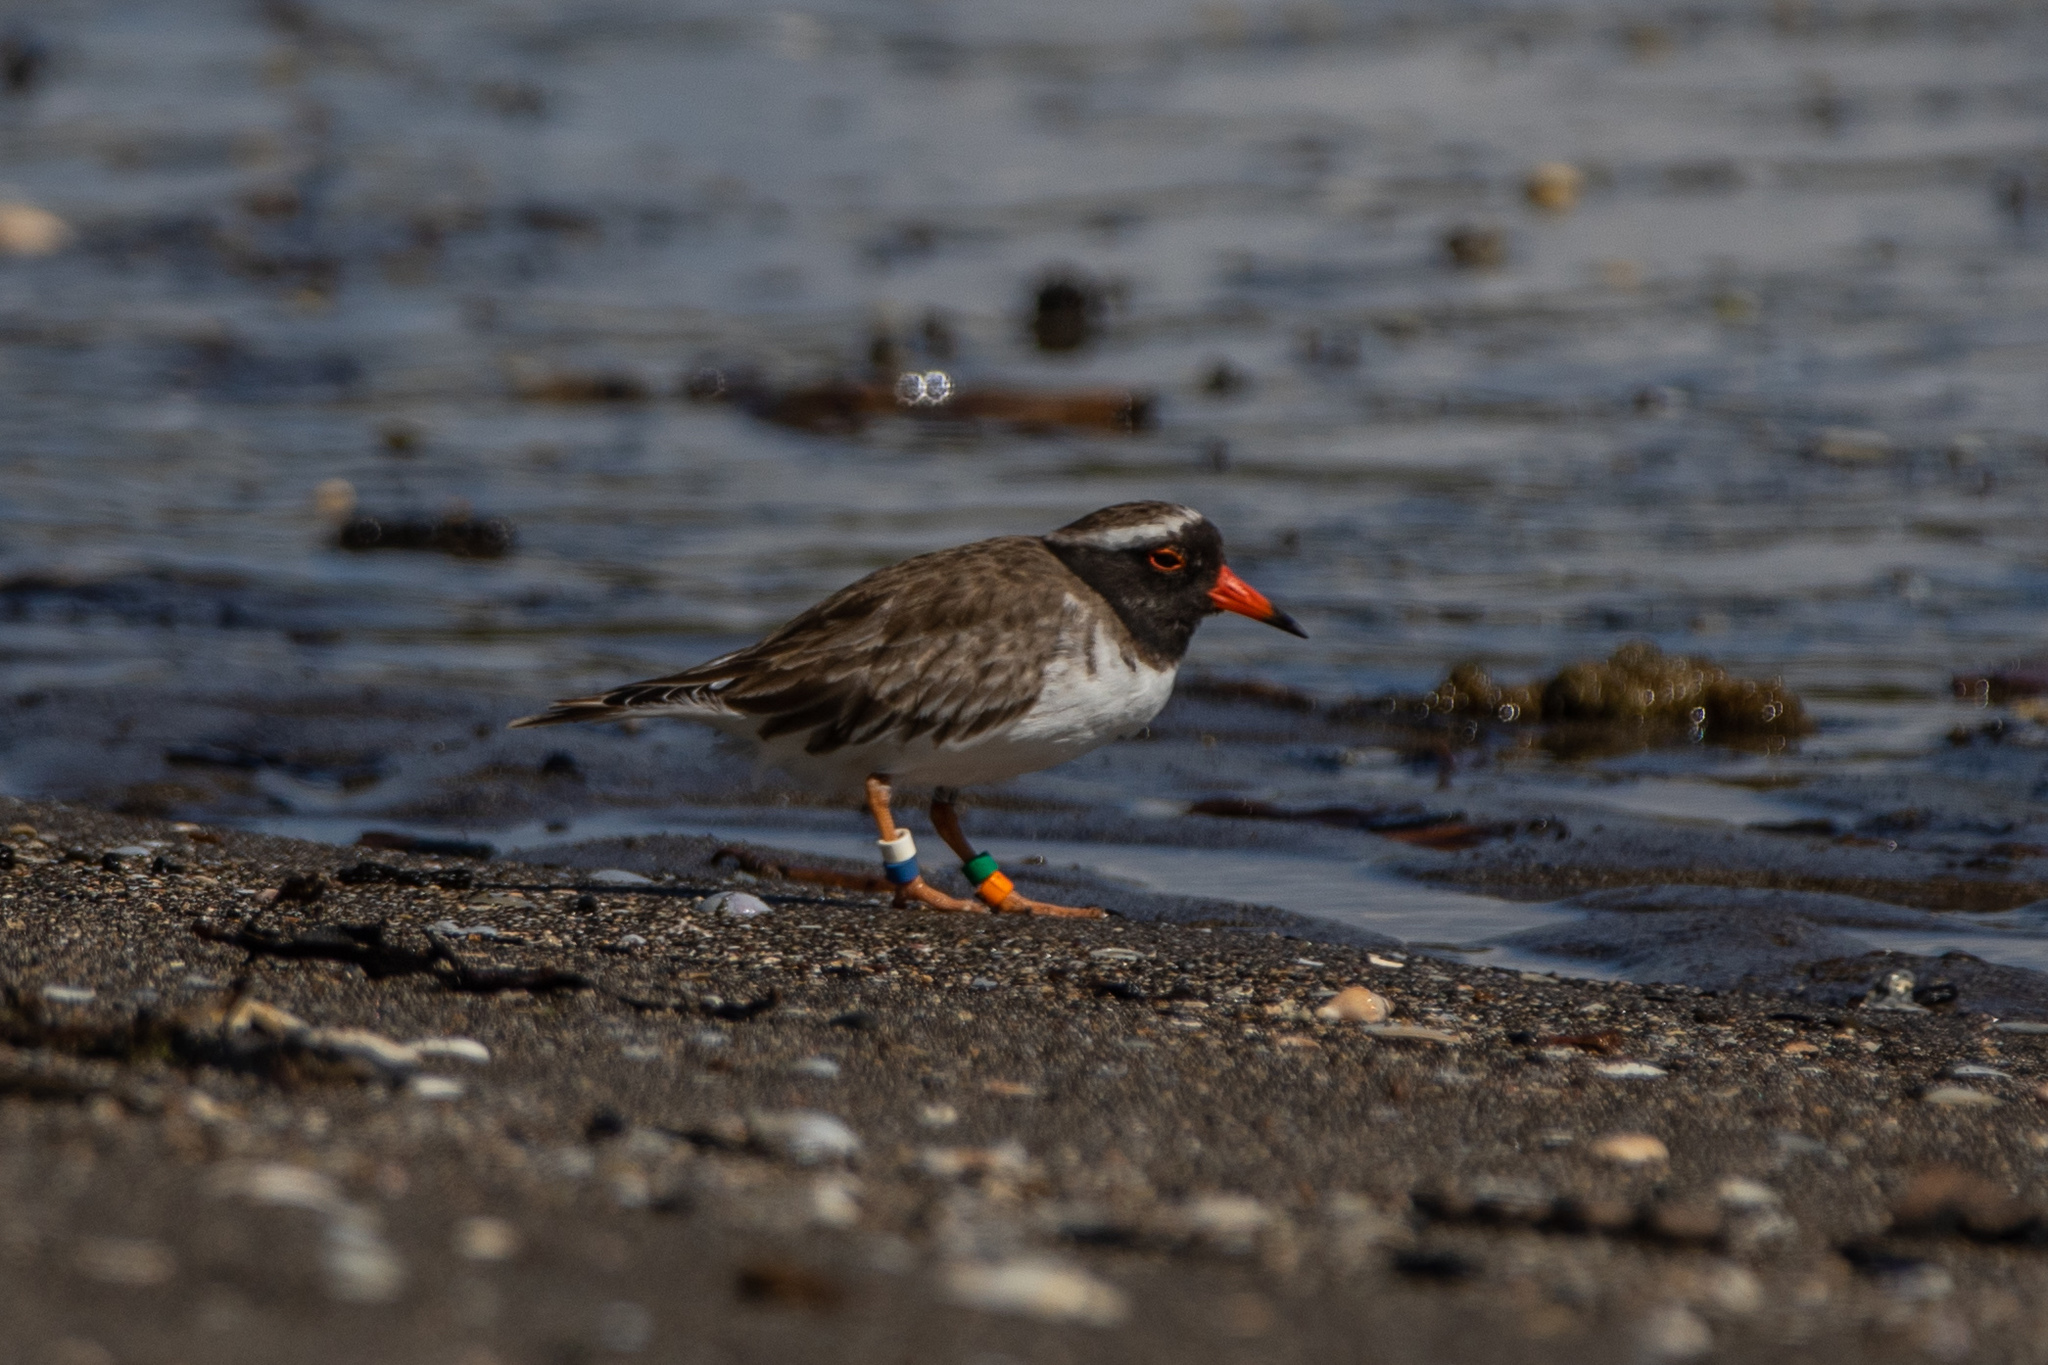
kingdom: Animalia
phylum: Chordata
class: Aves
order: Charadriiformes
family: Charadriidae
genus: Thinornis
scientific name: Thinornis novaeseelandiae
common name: Shore dotterel
